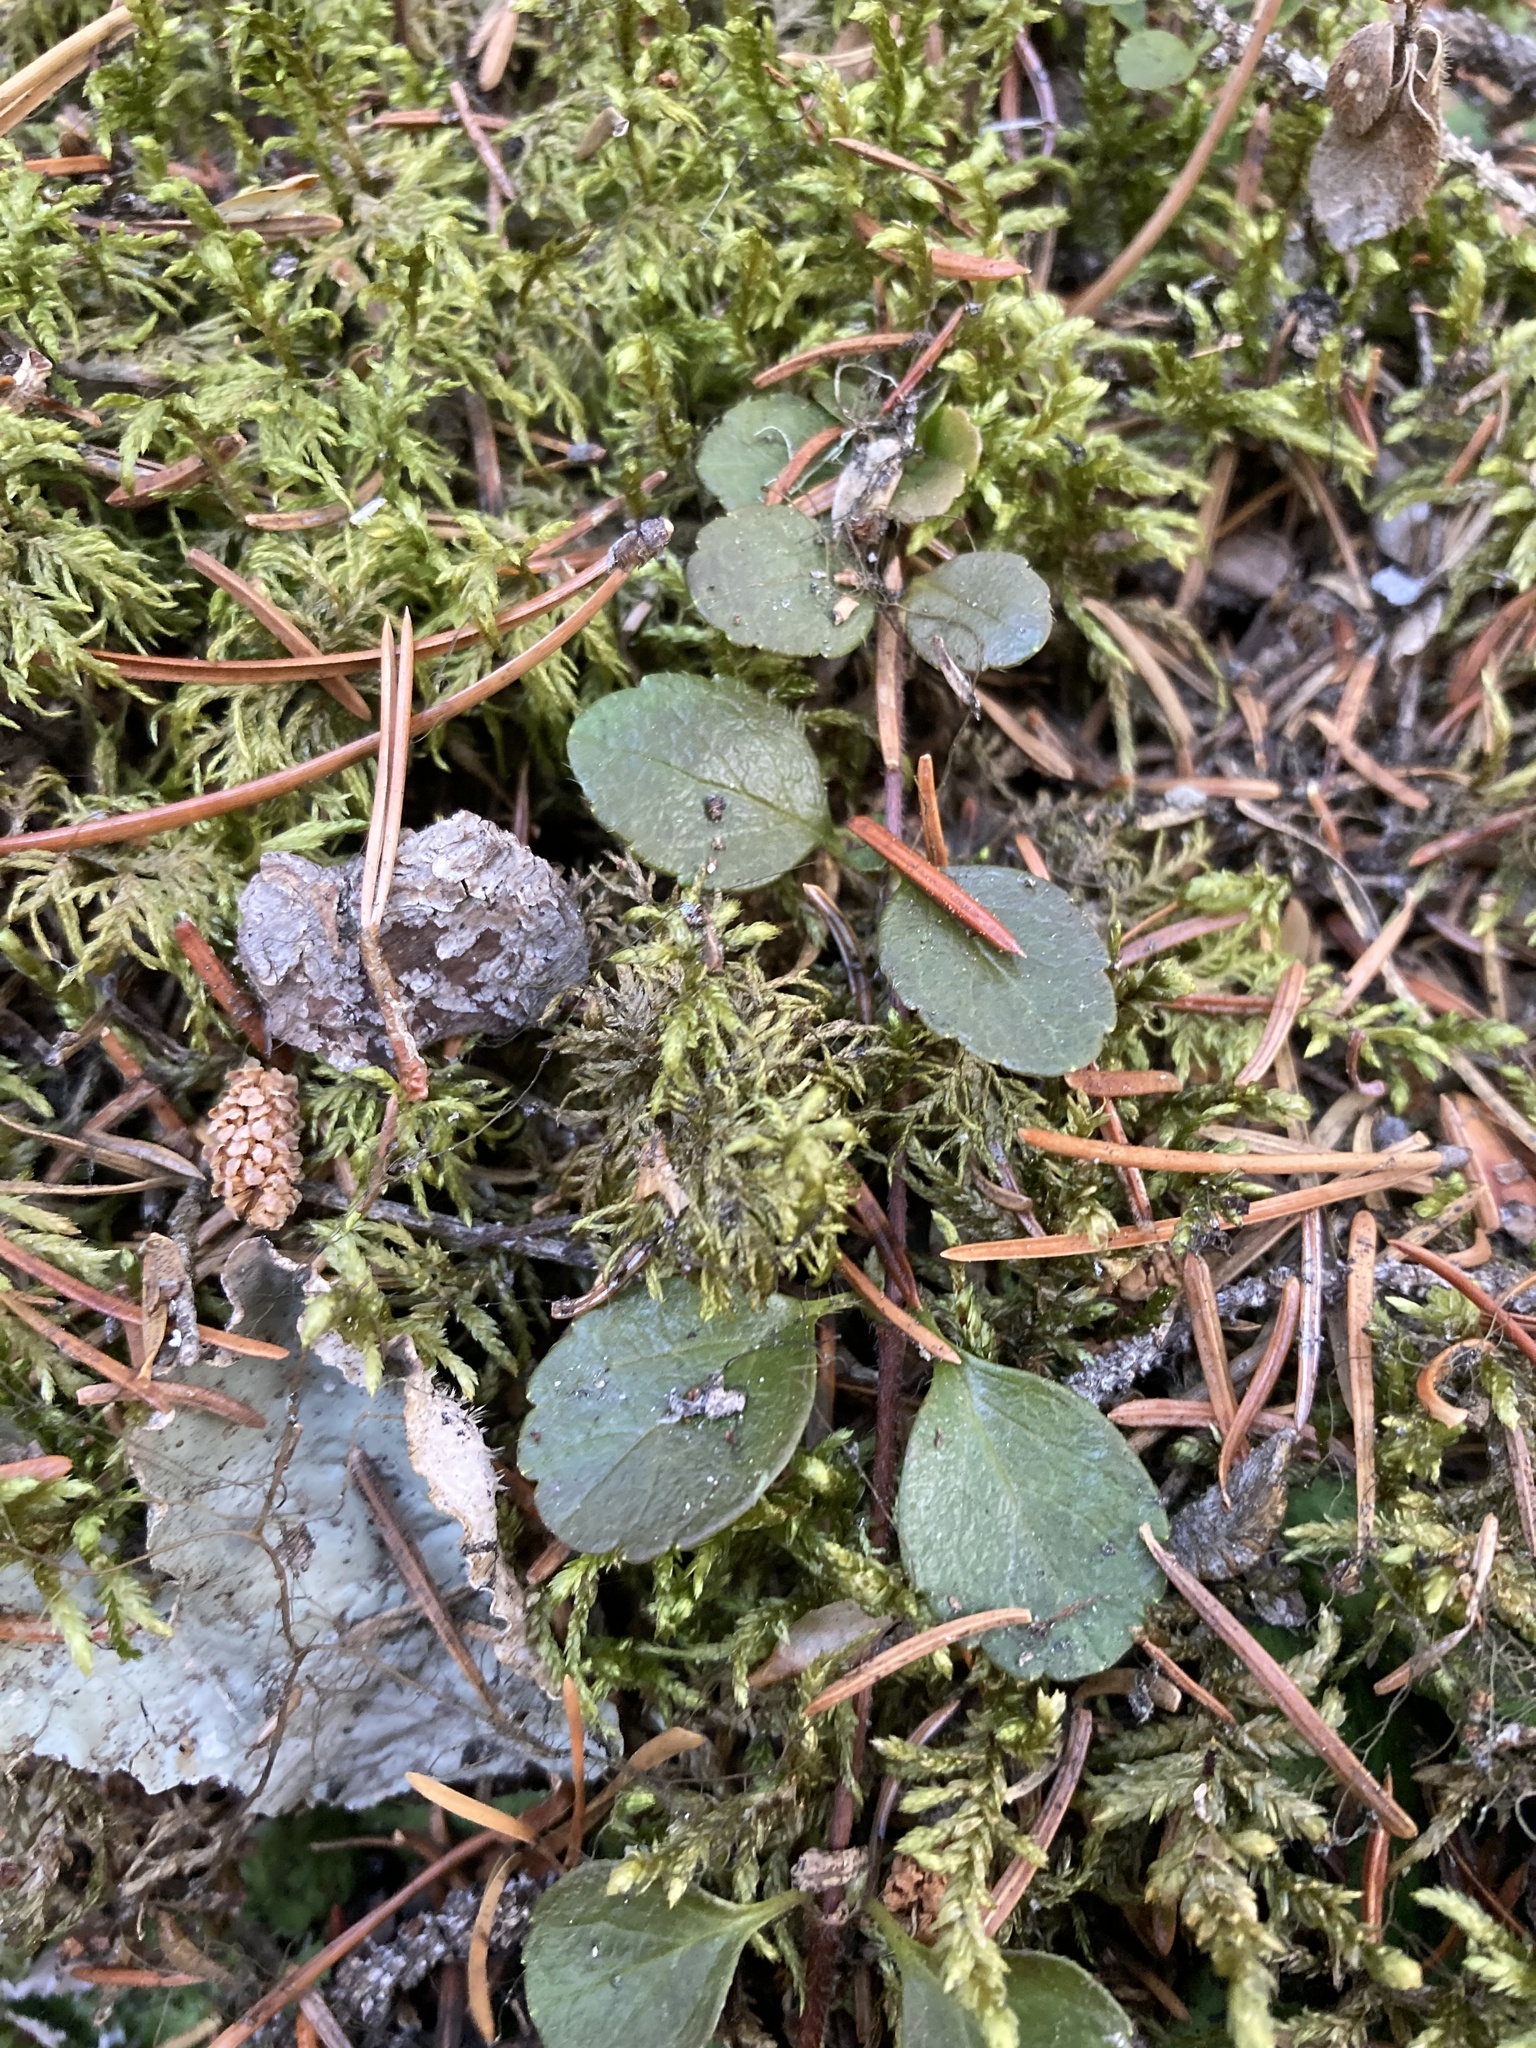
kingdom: Plantae
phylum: Tracheophyta
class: Magnoliopsida
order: Dipsacales
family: Caprifoliaceae
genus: Linnaea
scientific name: Linnaea borealis
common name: Twinflower
